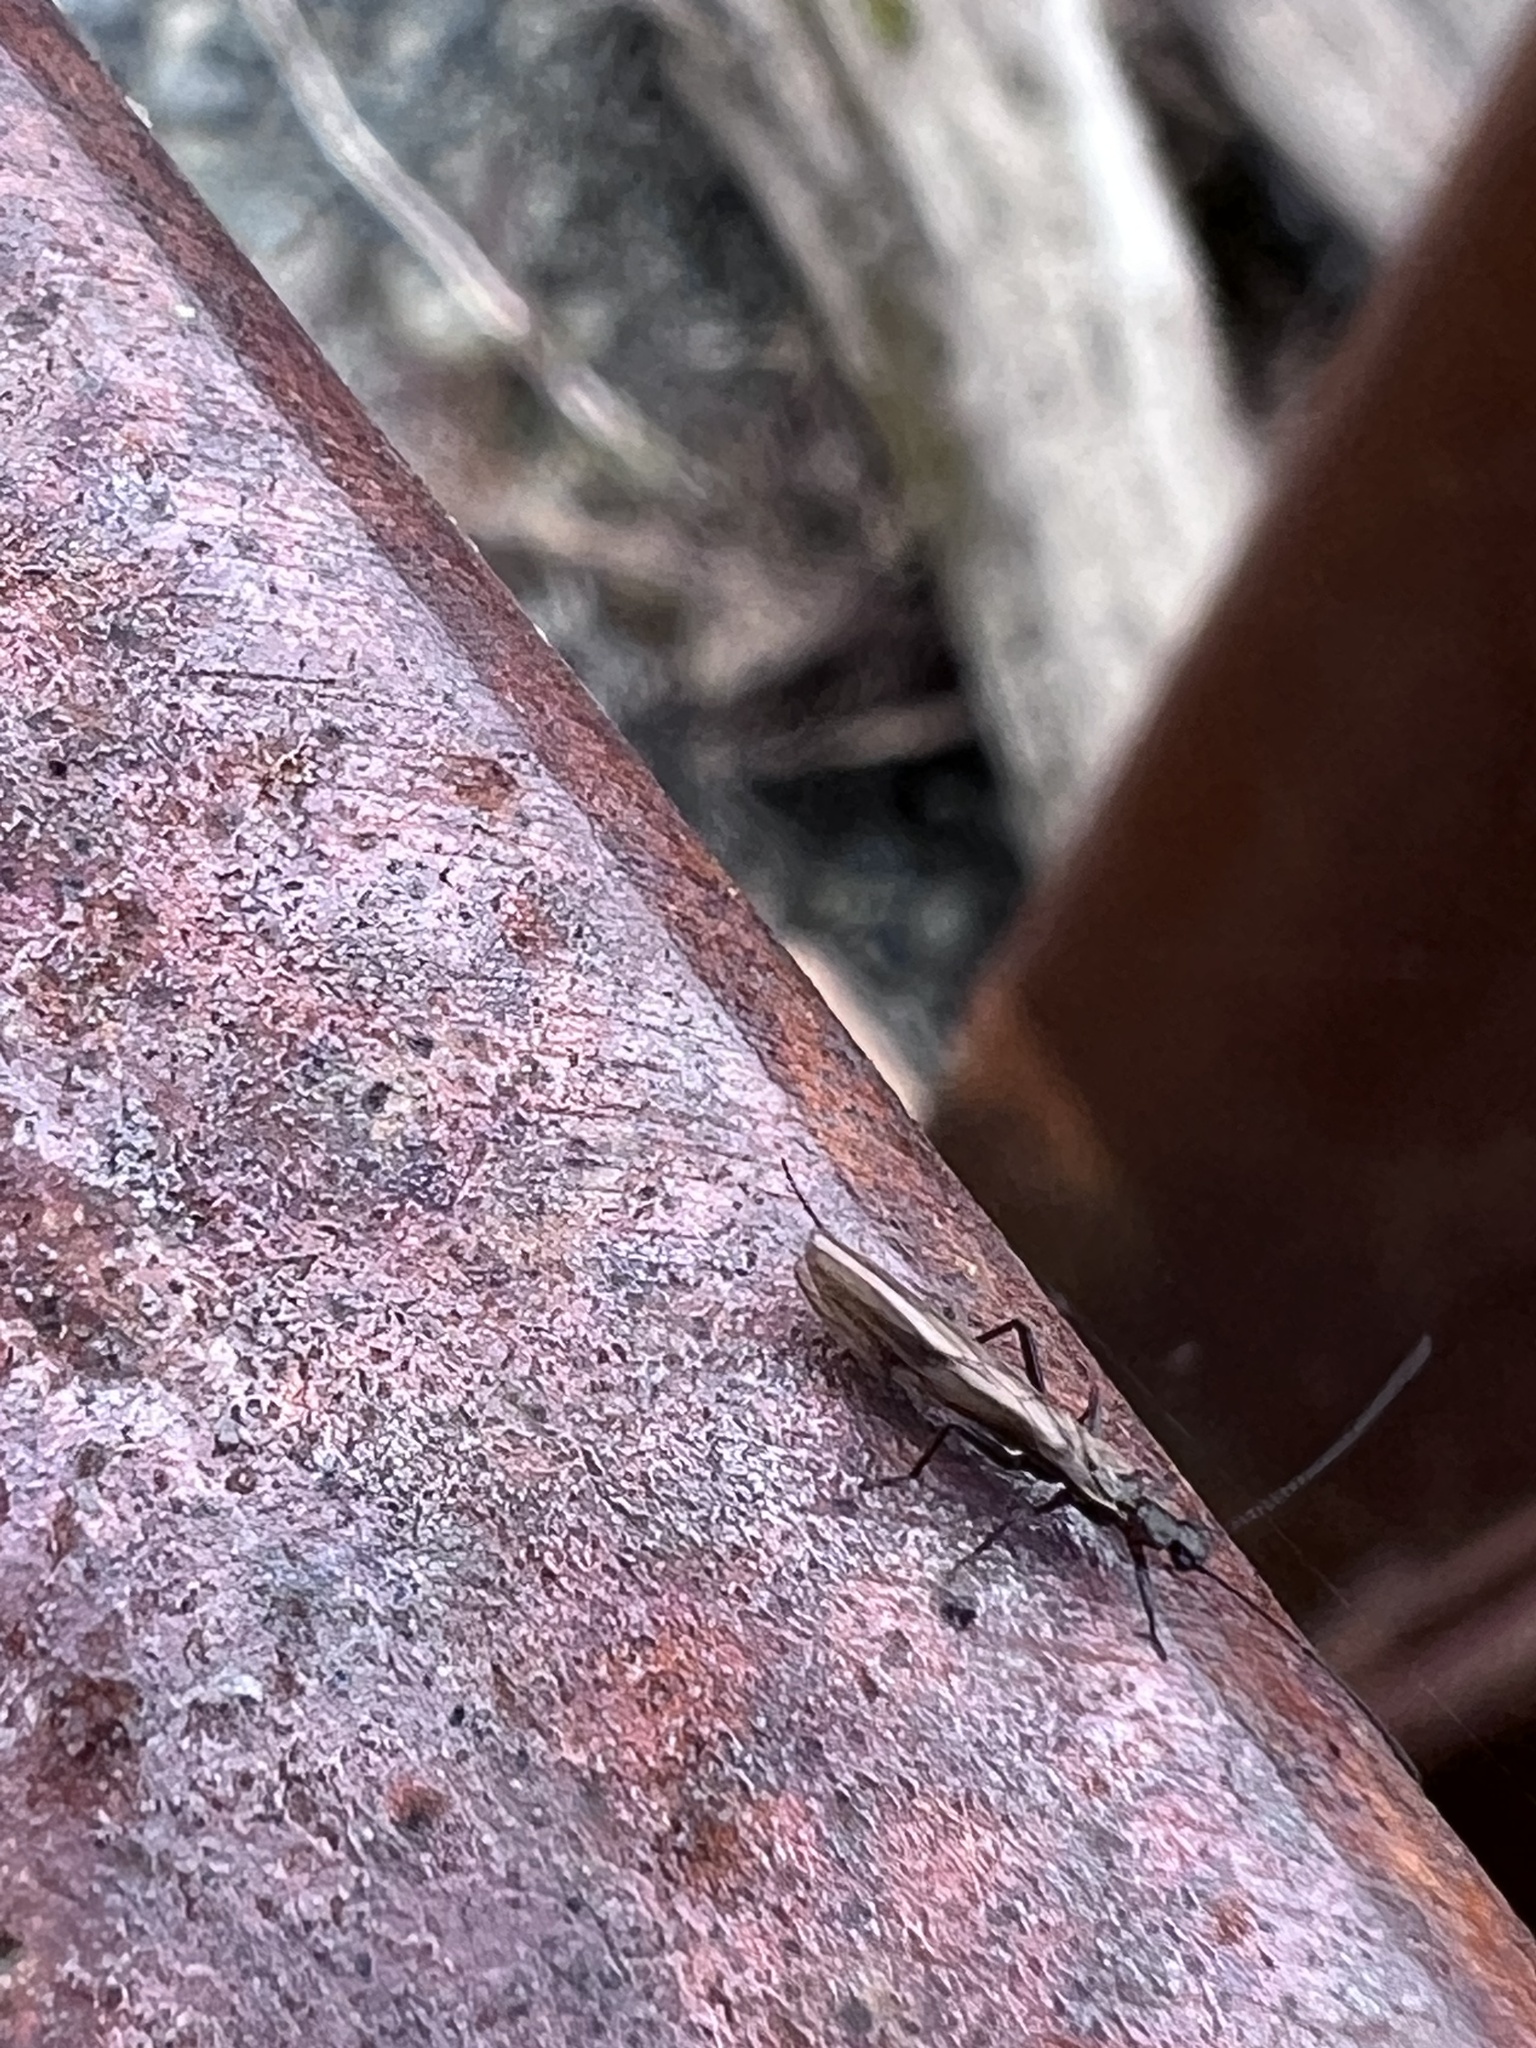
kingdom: Animalia
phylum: Arthropoda
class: Insecta
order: Plecoptera
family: Capniidae
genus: Capnia
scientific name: Capnia excavata
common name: Saddleback snowfly
